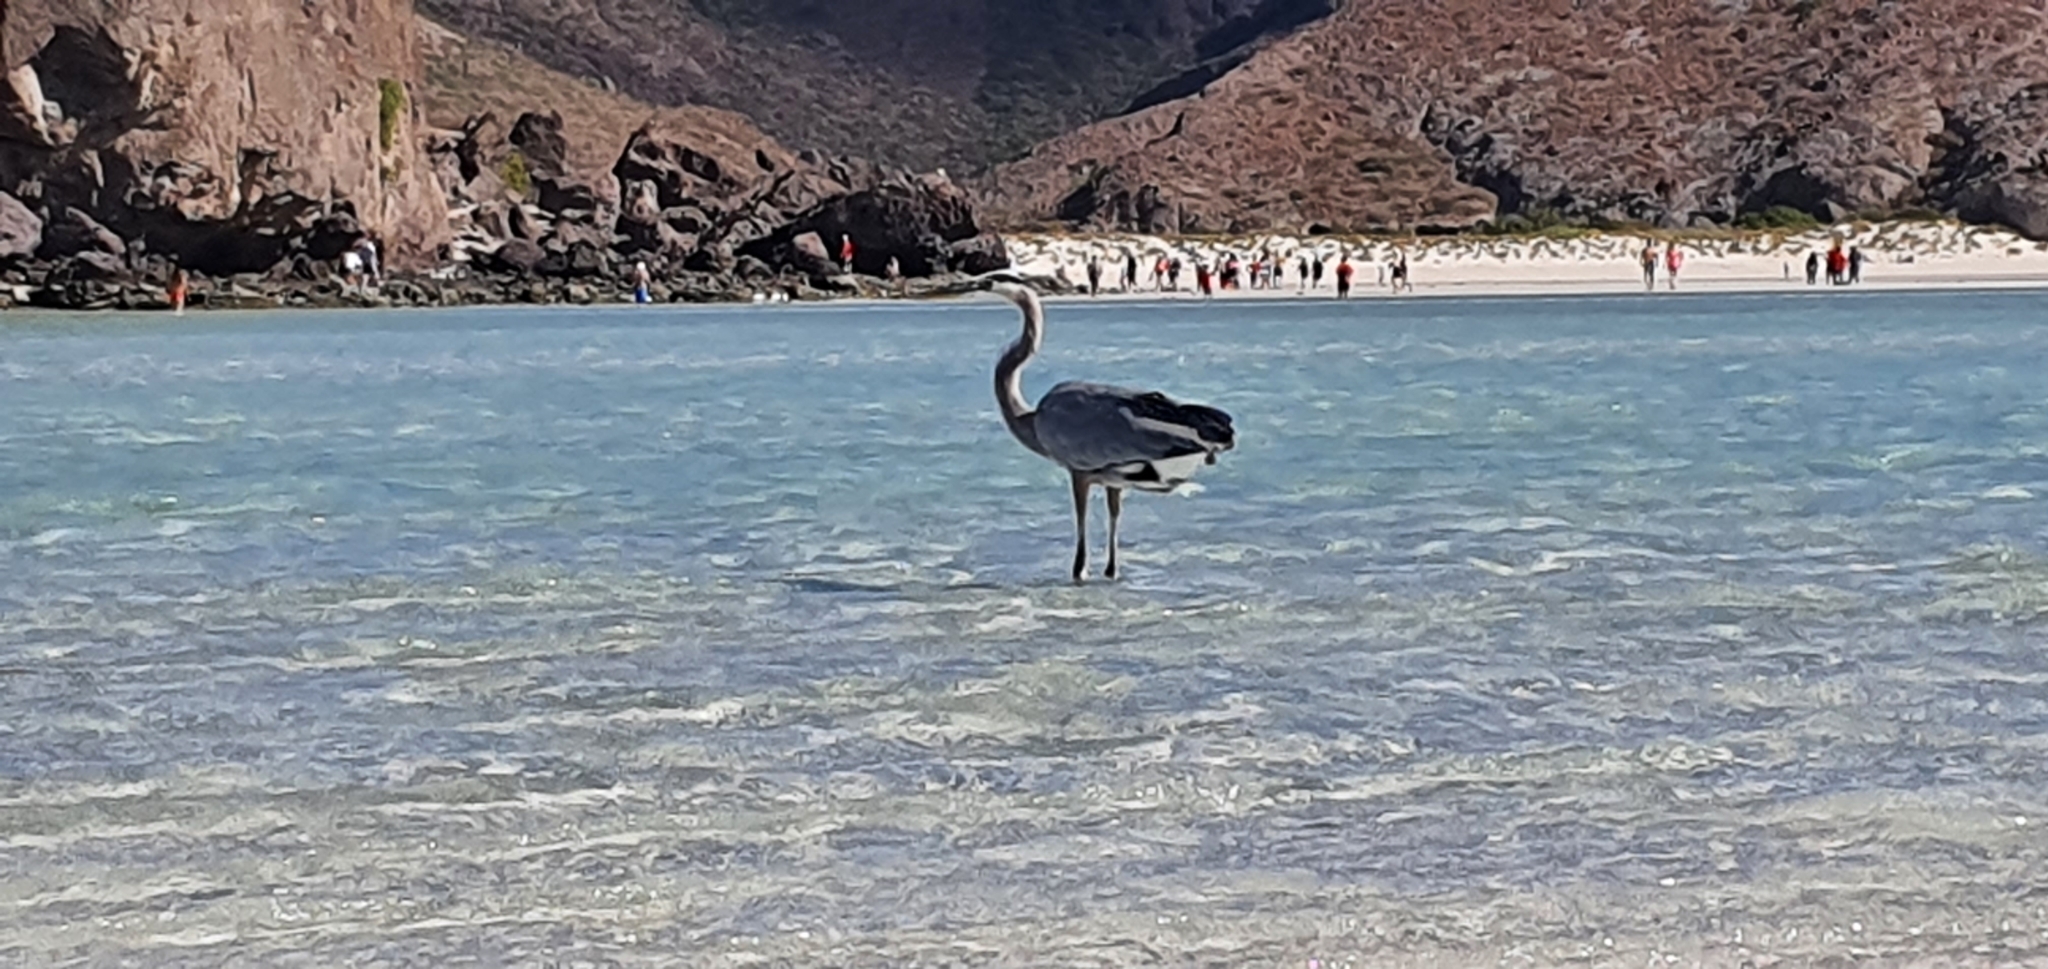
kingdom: Animalia
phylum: Chordata
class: Aves
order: Pelecaniformes
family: Ardeidae
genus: Ardea
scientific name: Ardea herodias
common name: Great blue heron
